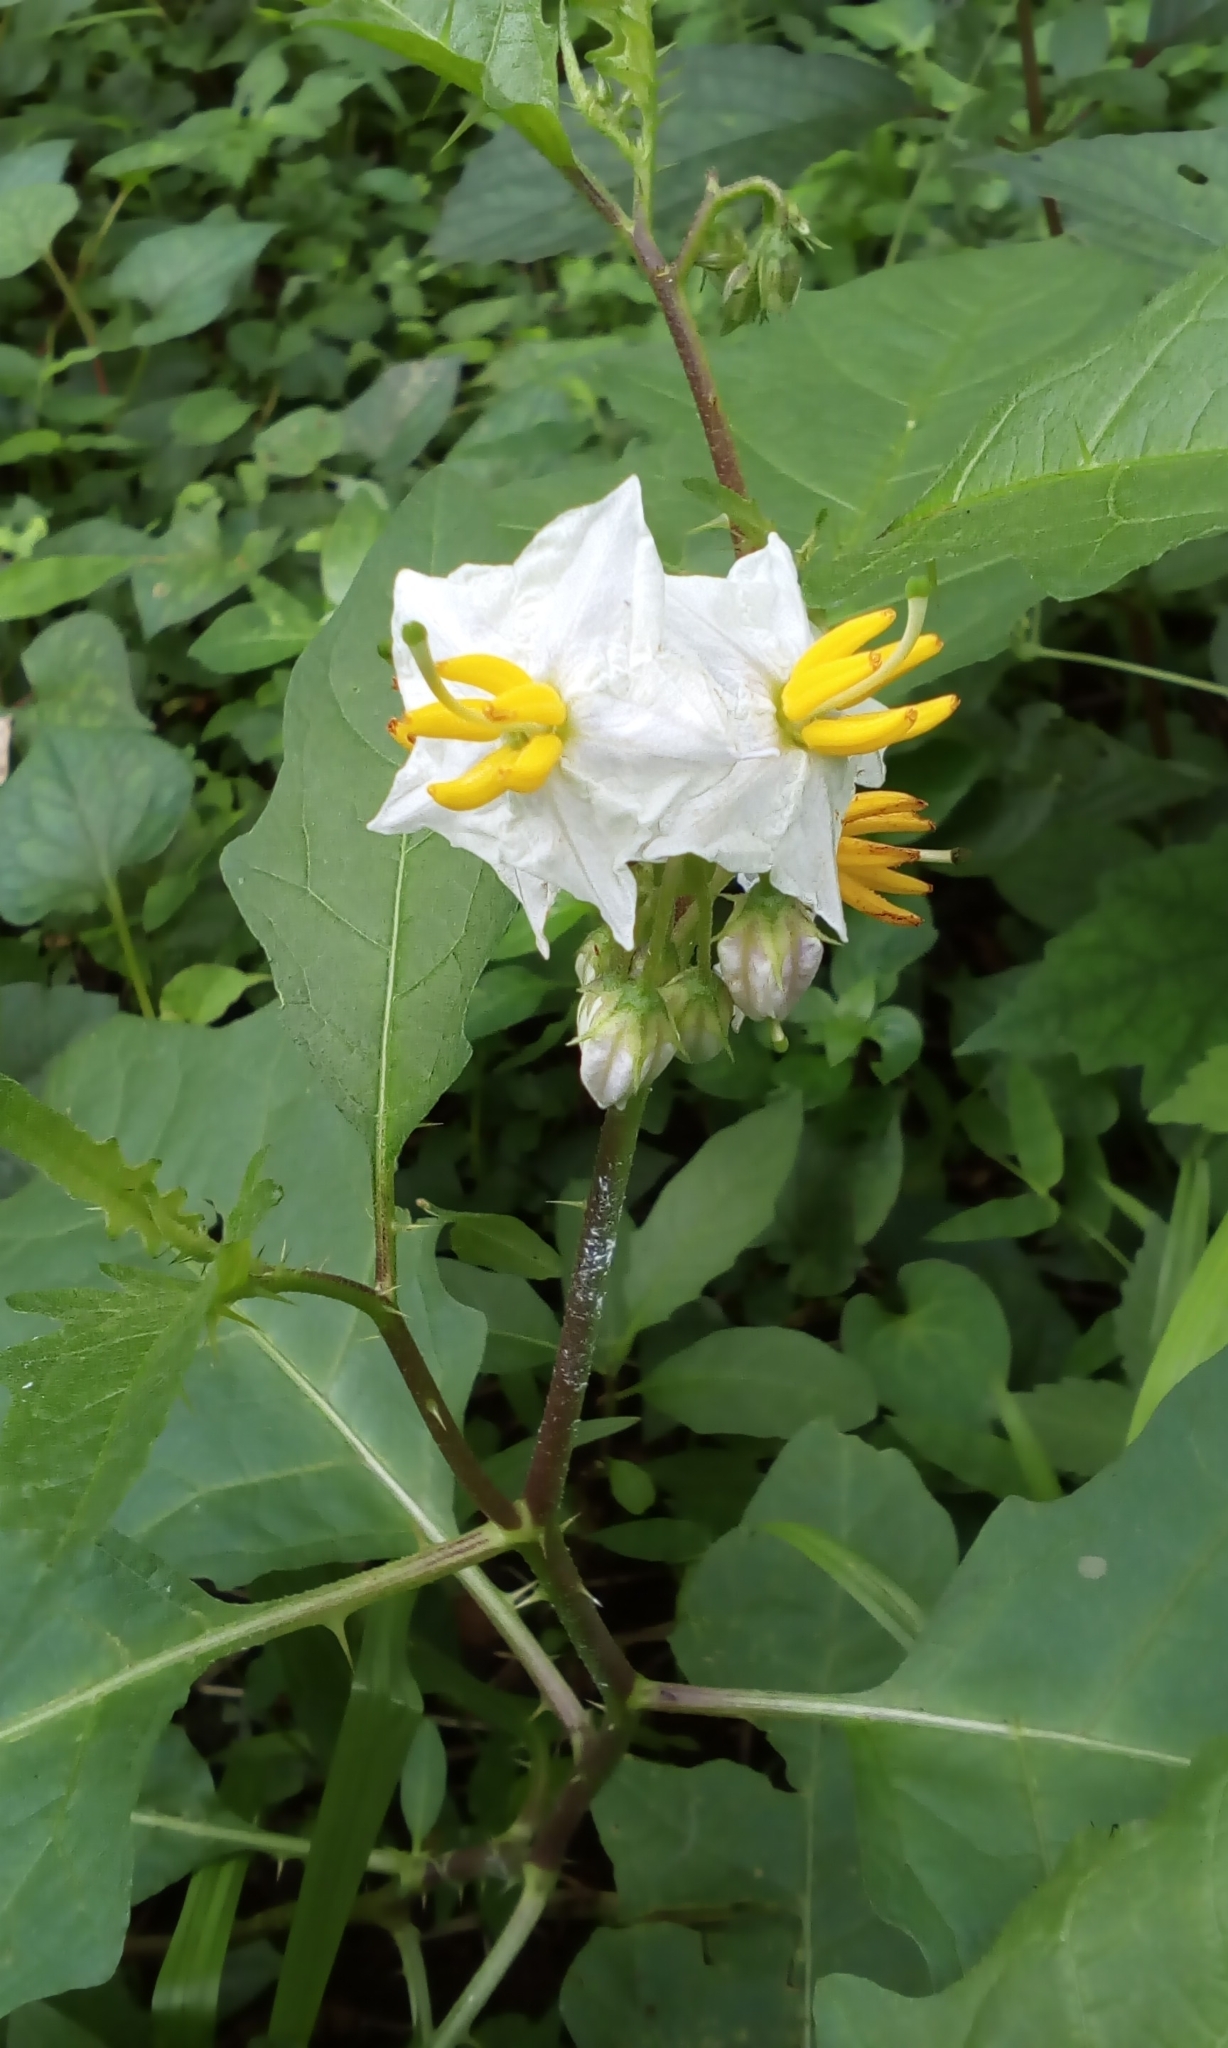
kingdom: Plantae
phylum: Tracheophyta
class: Magnoliopsida
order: Solanales
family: Solanaceae
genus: Solanum
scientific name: Solanum carolinense
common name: Horse-nettle
